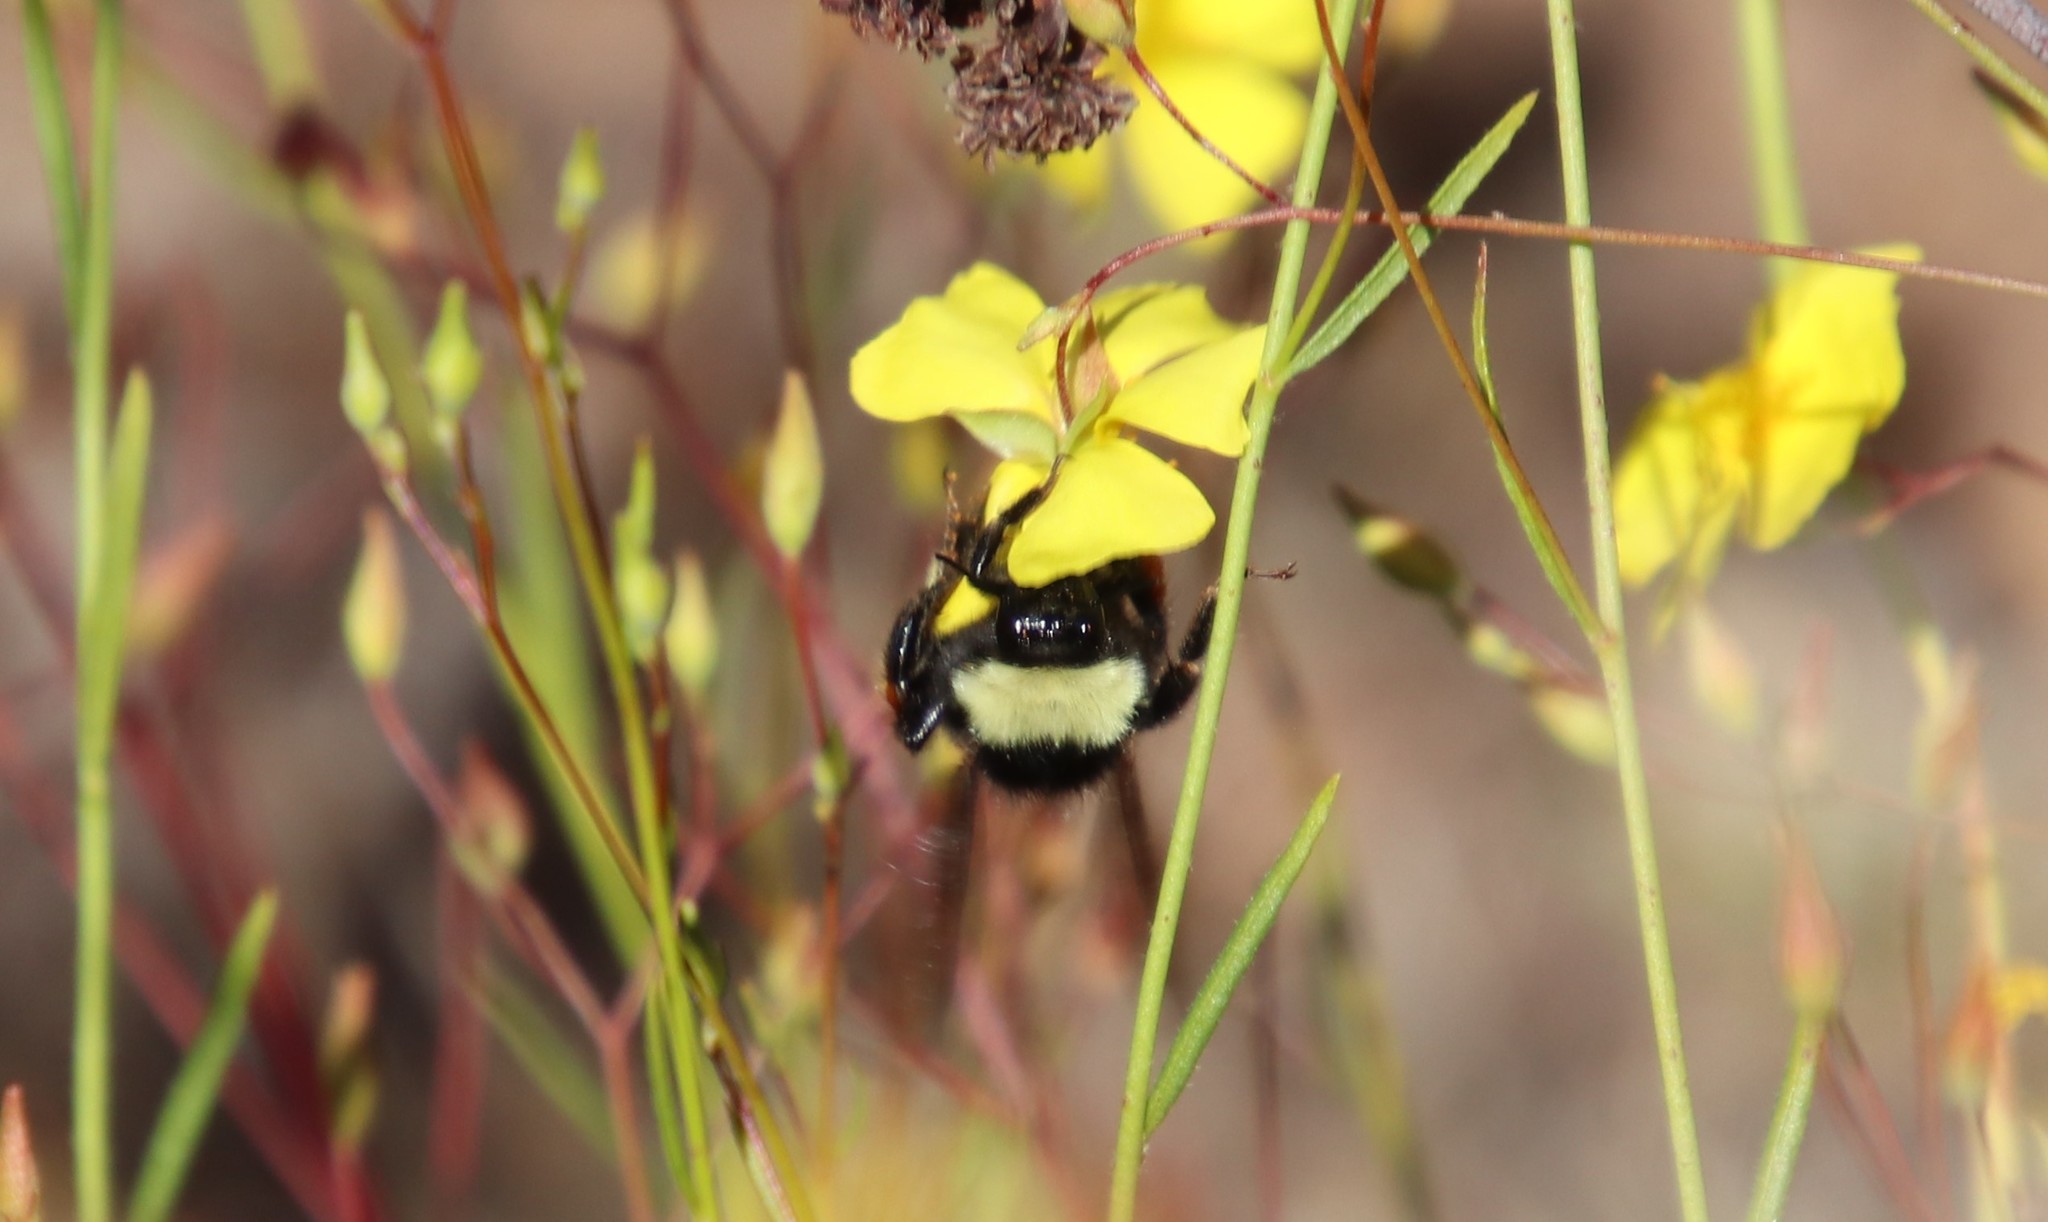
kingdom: Animalia
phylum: Arthropoda
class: Insecta
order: Hymenoptera
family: Apidae
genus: Bombus
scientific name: Bombus californicus
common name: California bumble bee
